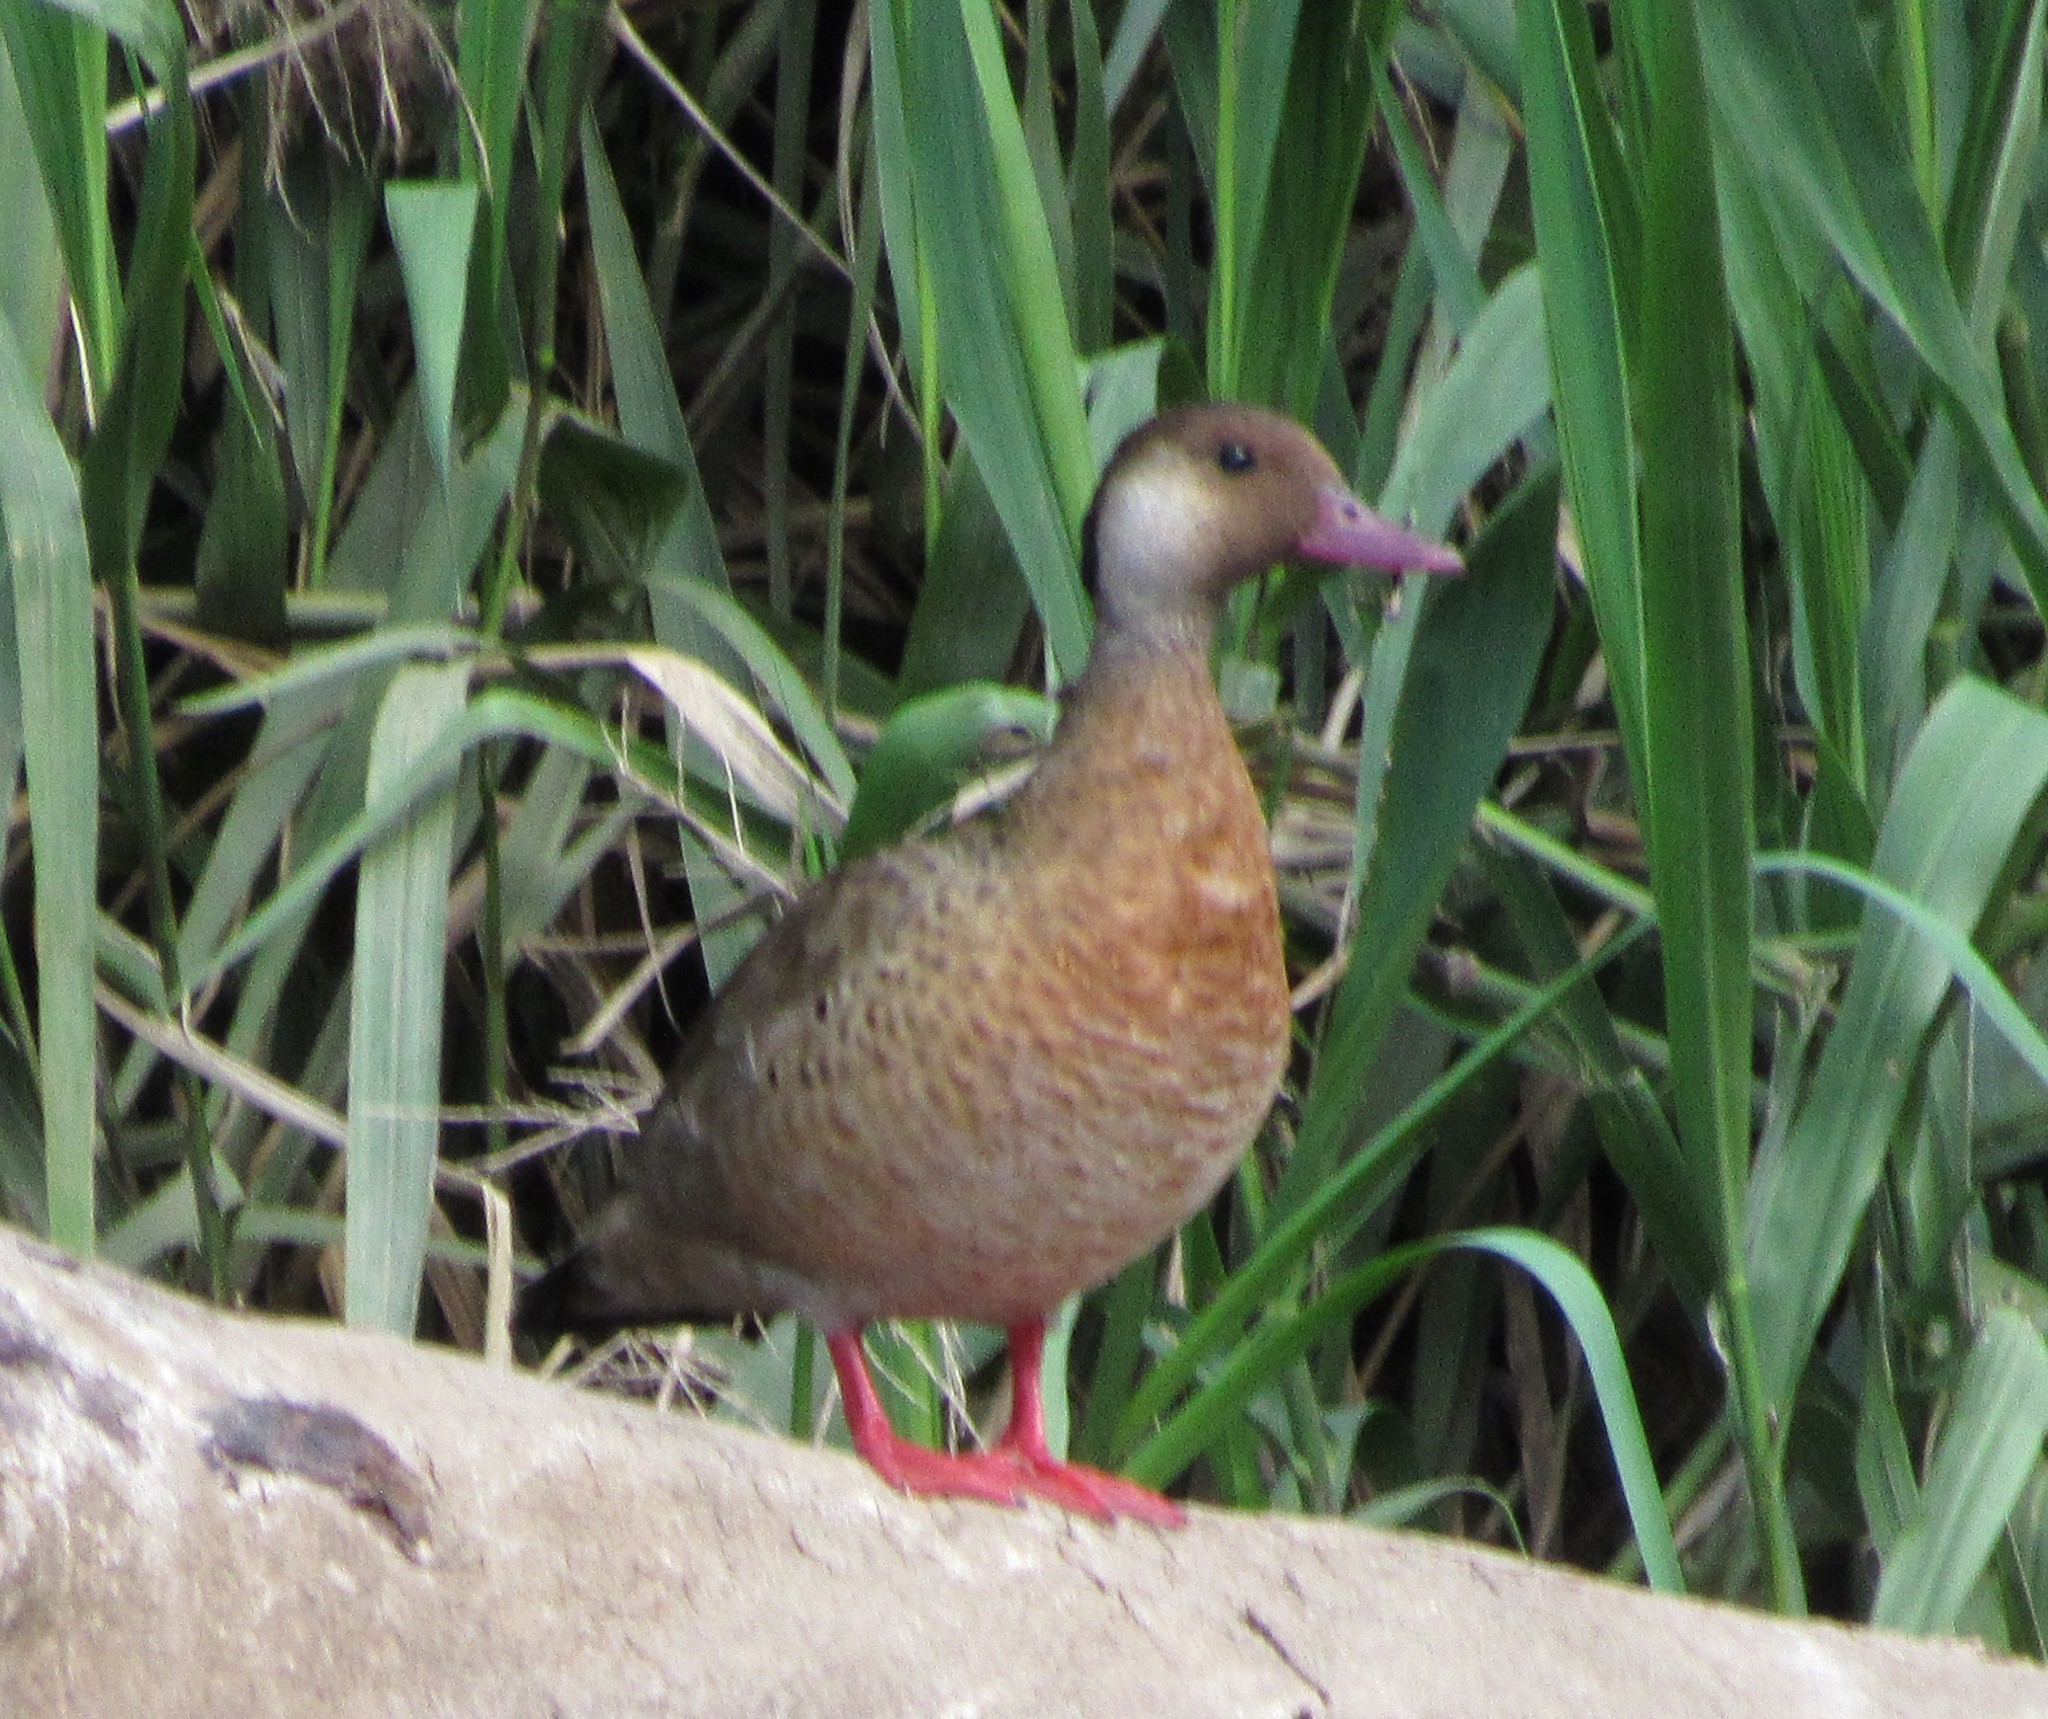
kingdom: Animalia
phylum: Chordata
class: Aves
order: Anseriformes
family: Anatidae
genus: Amazonetta
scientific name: Amazonetta brasiliensis
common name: Brazilian teal
